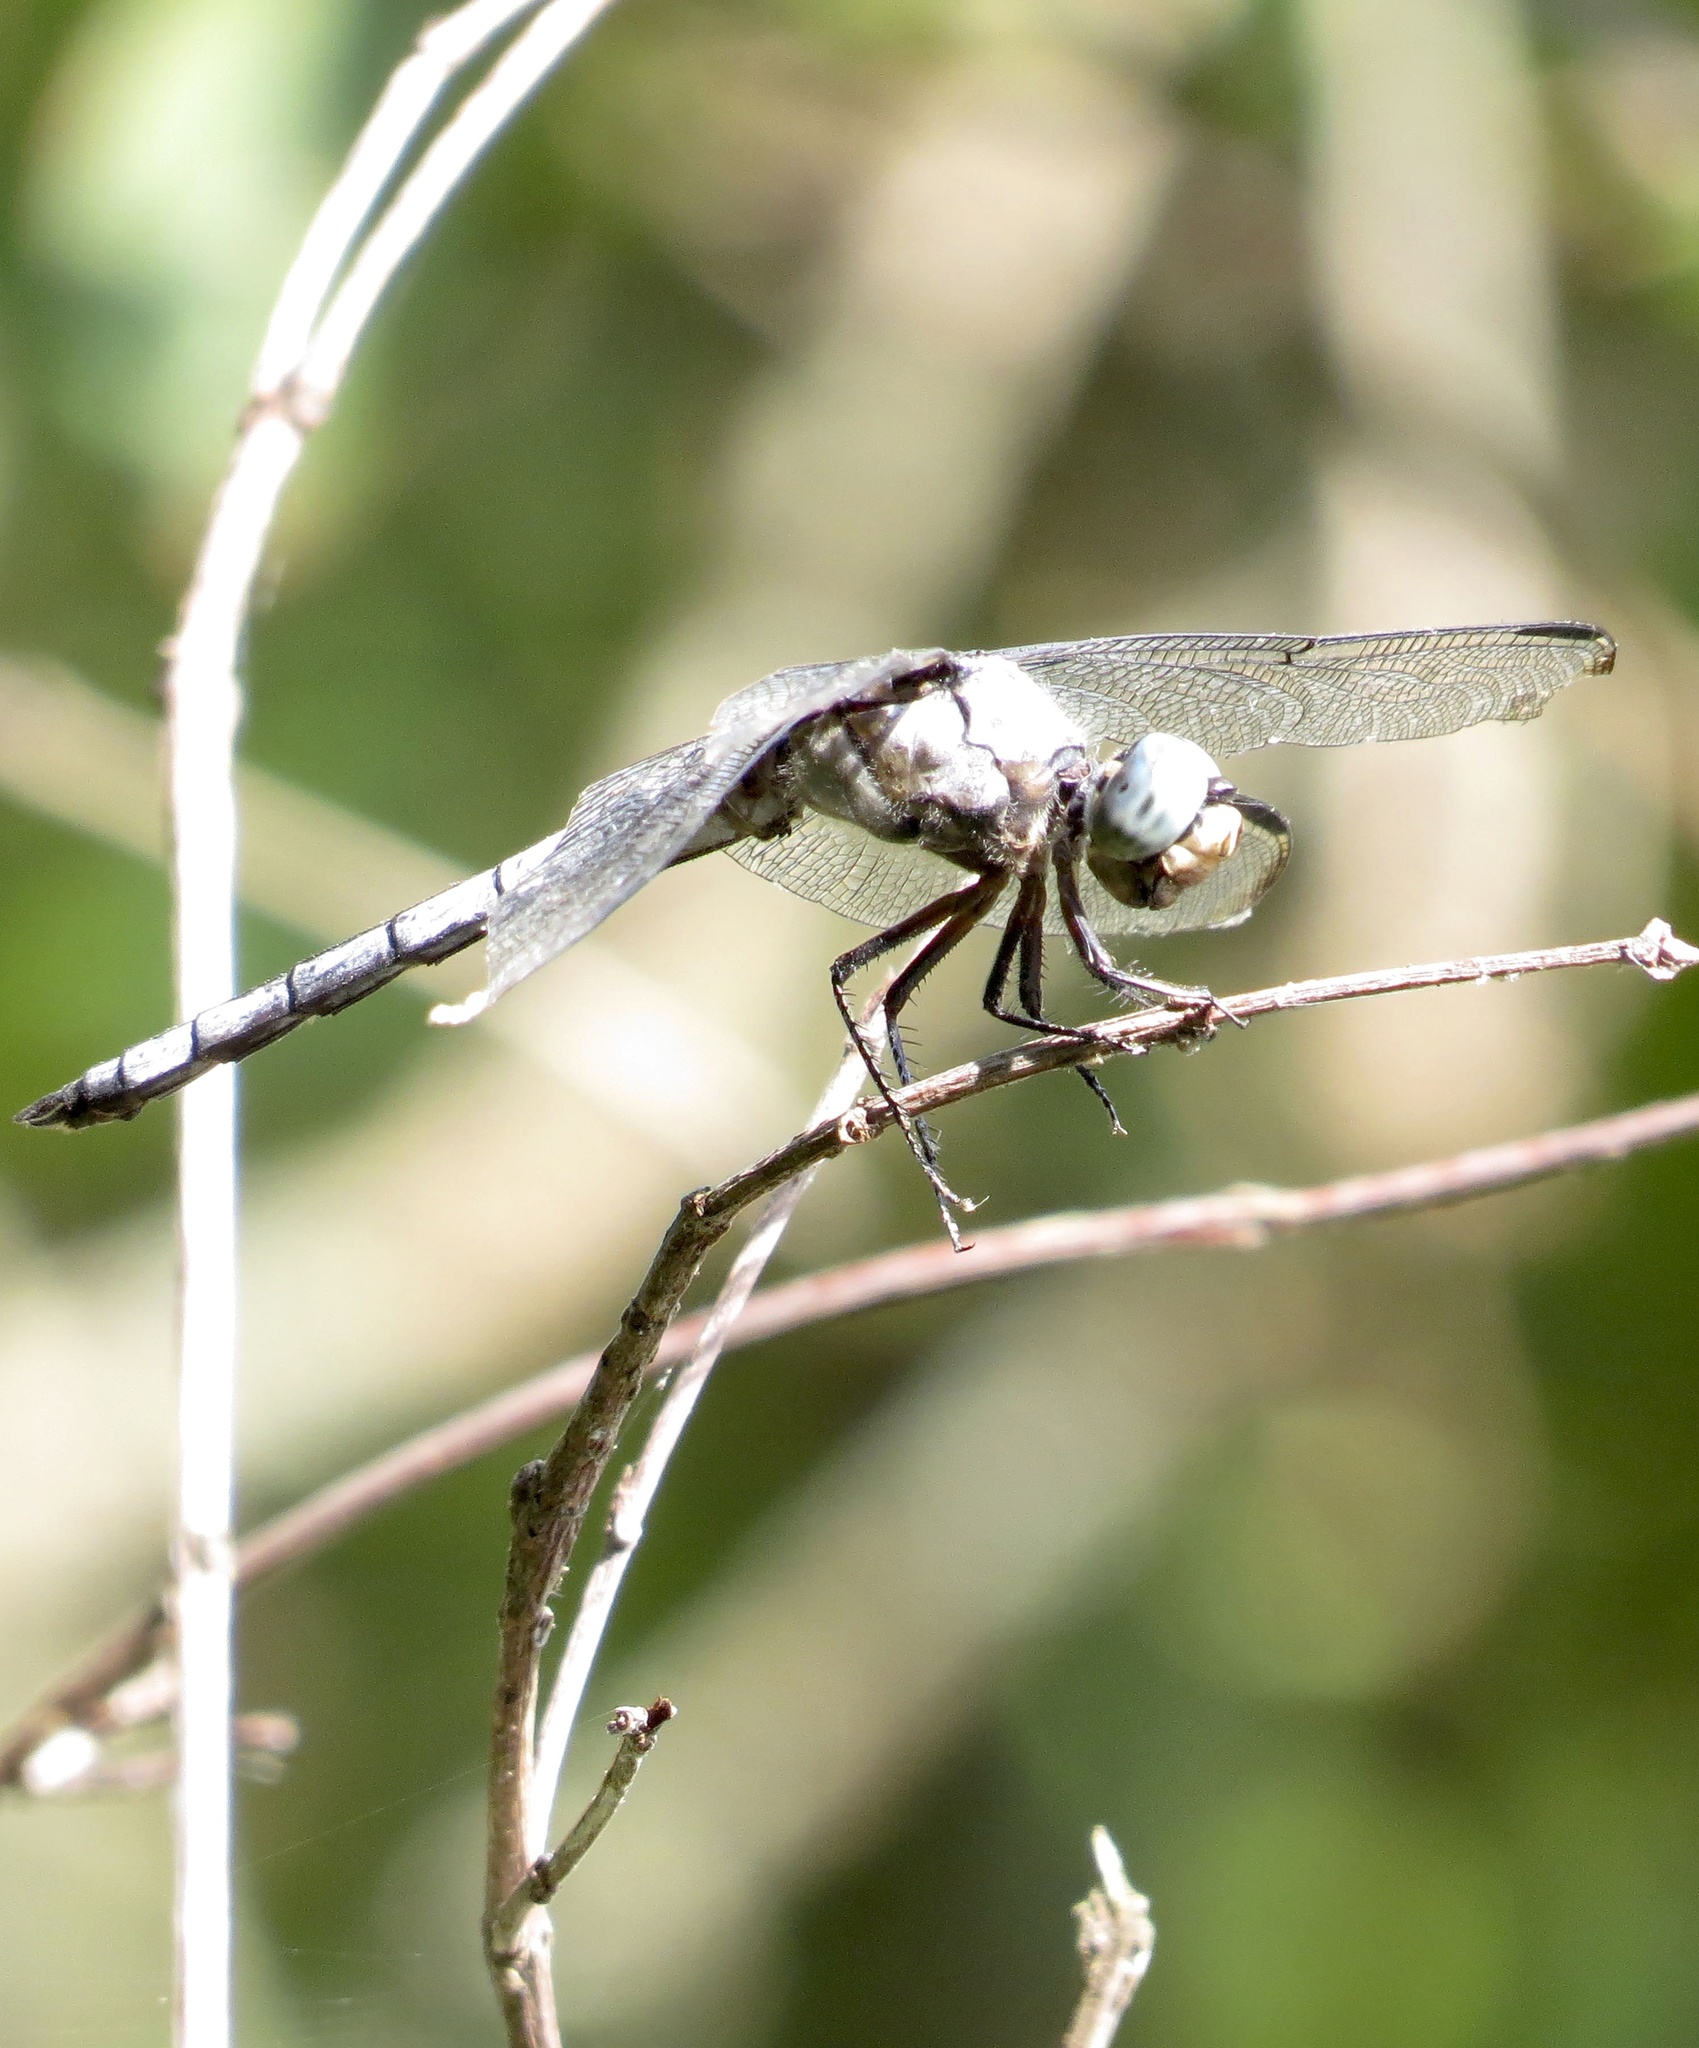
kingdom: Animalia
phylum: Arthropoda
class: Insecta
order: Odonata
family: Libellulidae
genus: Libellula
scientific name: Libellula vibrans
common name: Great blue skimmer
